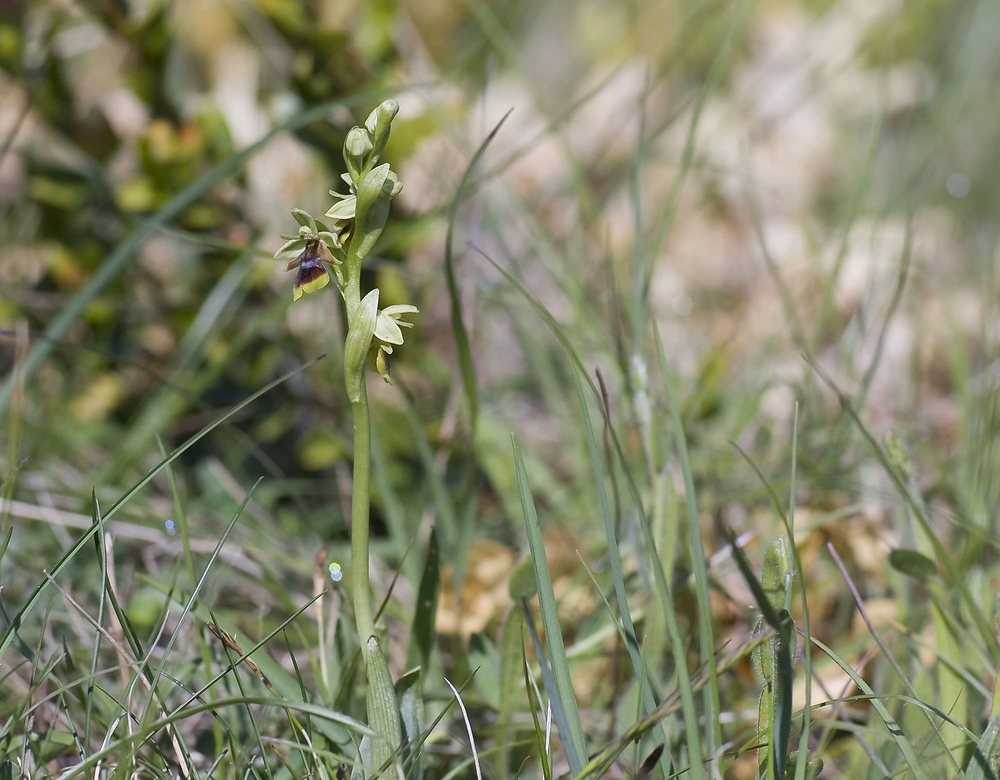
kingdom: Plantae
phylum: Tracheophyta
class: Liliopsida
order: Asparagales
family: Orchidaceae
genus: Ophrys
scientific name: Ophrys insectifera
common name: Fly orchid
